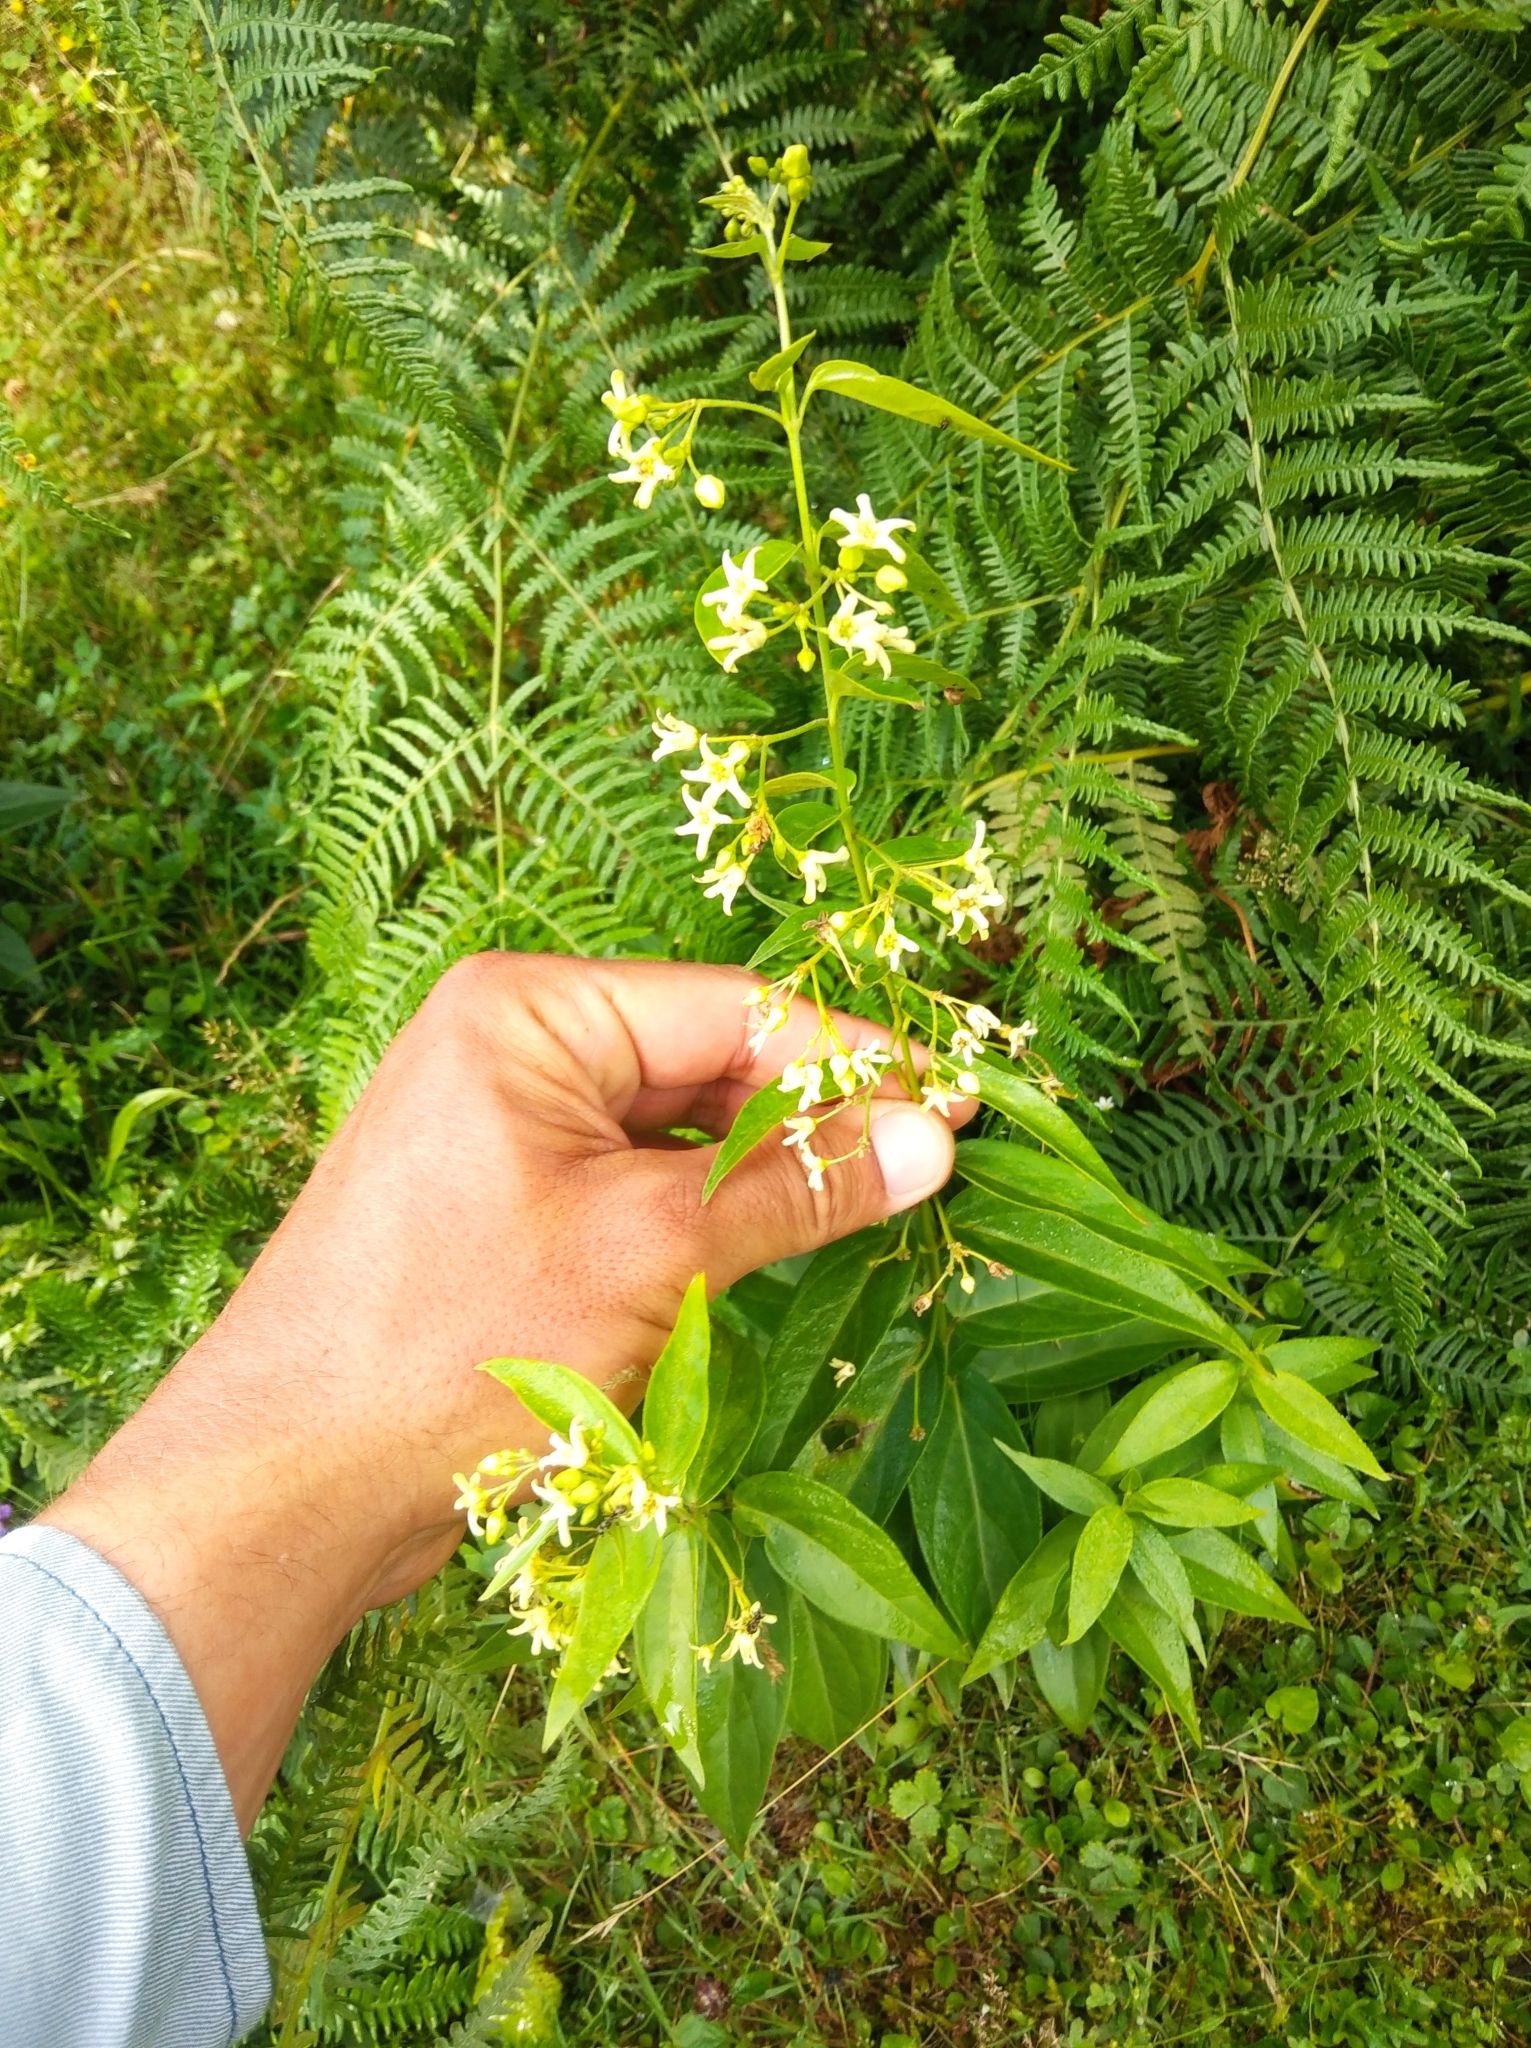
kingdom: Plantae
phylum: Tracheophyta
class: Magnoliopsida
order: Gentianales
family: Apocynaceae
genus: Vincetoxicum
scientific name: Vincetoxicum hirundinaria
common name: White swallowwort
